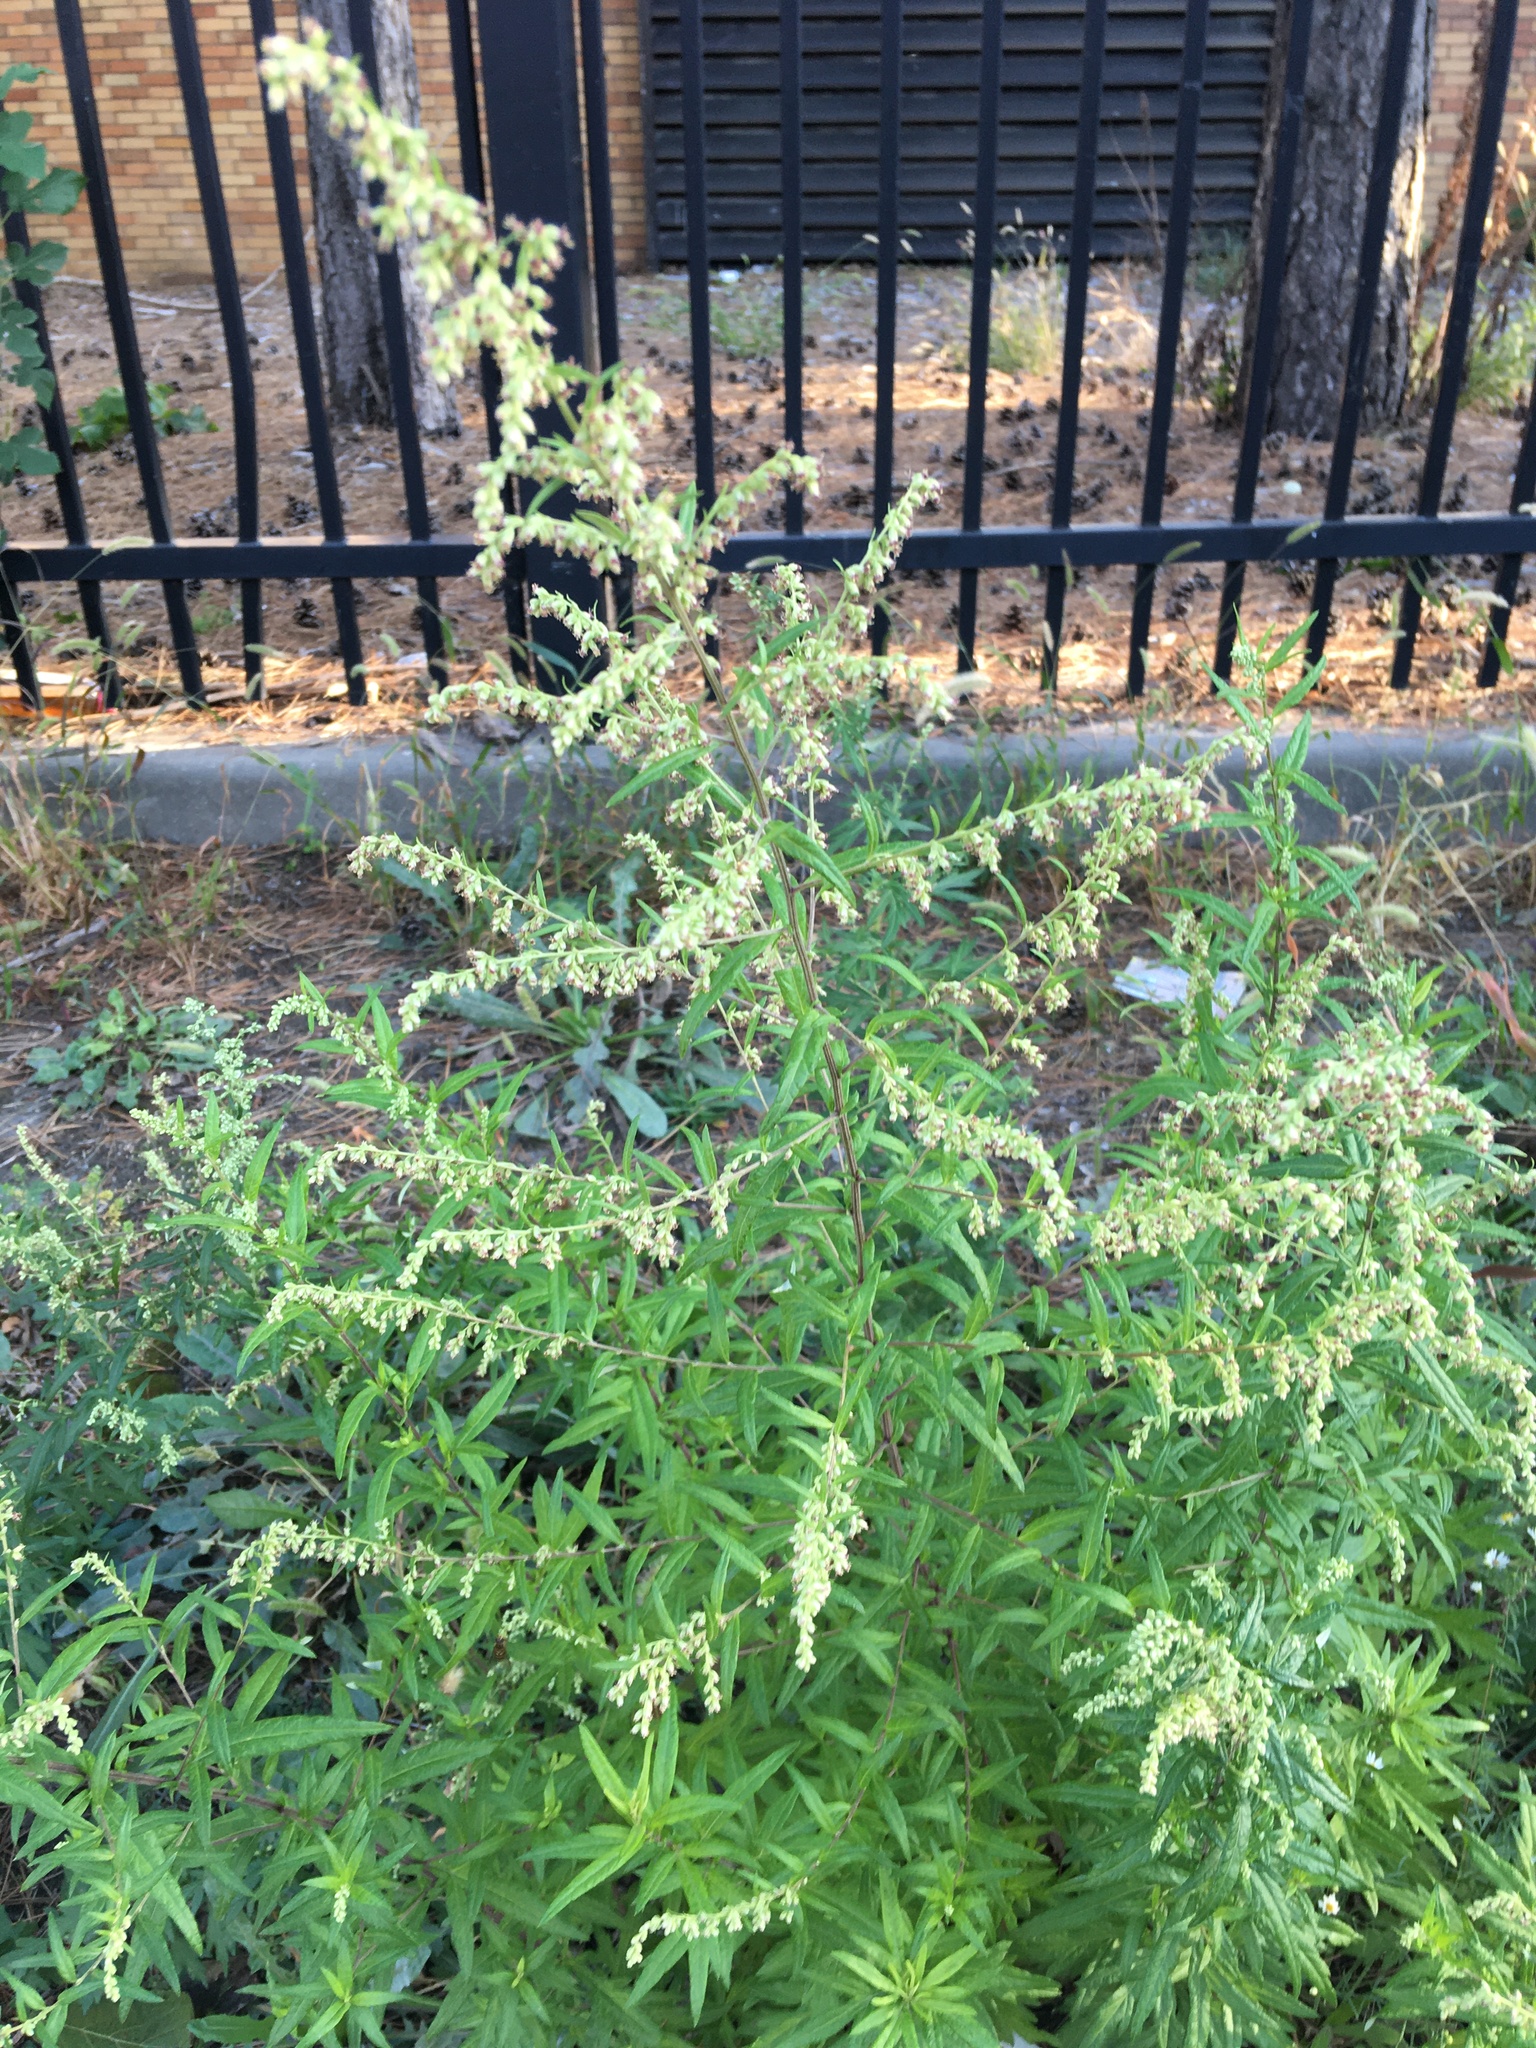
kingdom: Plantae
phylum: Tracheophyta
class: Magnoliopsida
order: Asterales
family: Asteraceae
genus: Artemisia
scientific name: Artemisia vulgaris
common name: Mugwort
